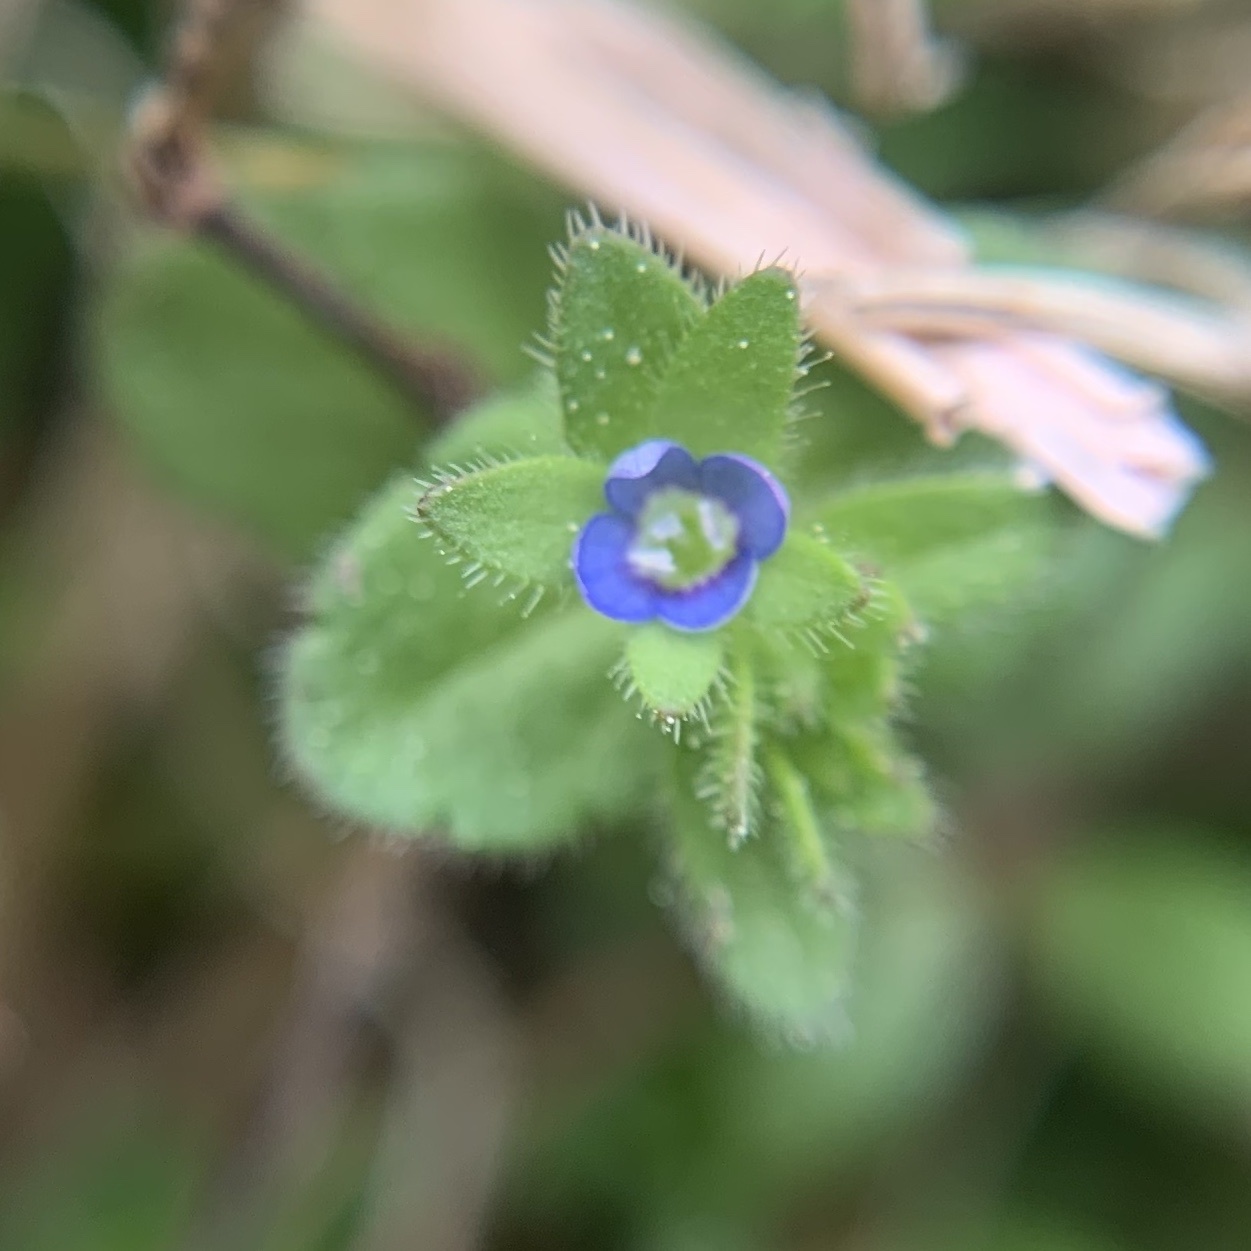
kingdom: Plantae
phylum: Tracheophyta
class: Magnoliopsida
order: Lamiales
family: Plantaginaceae
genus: Veronica
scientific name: Veronica arvensis
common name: Corn speedwell
